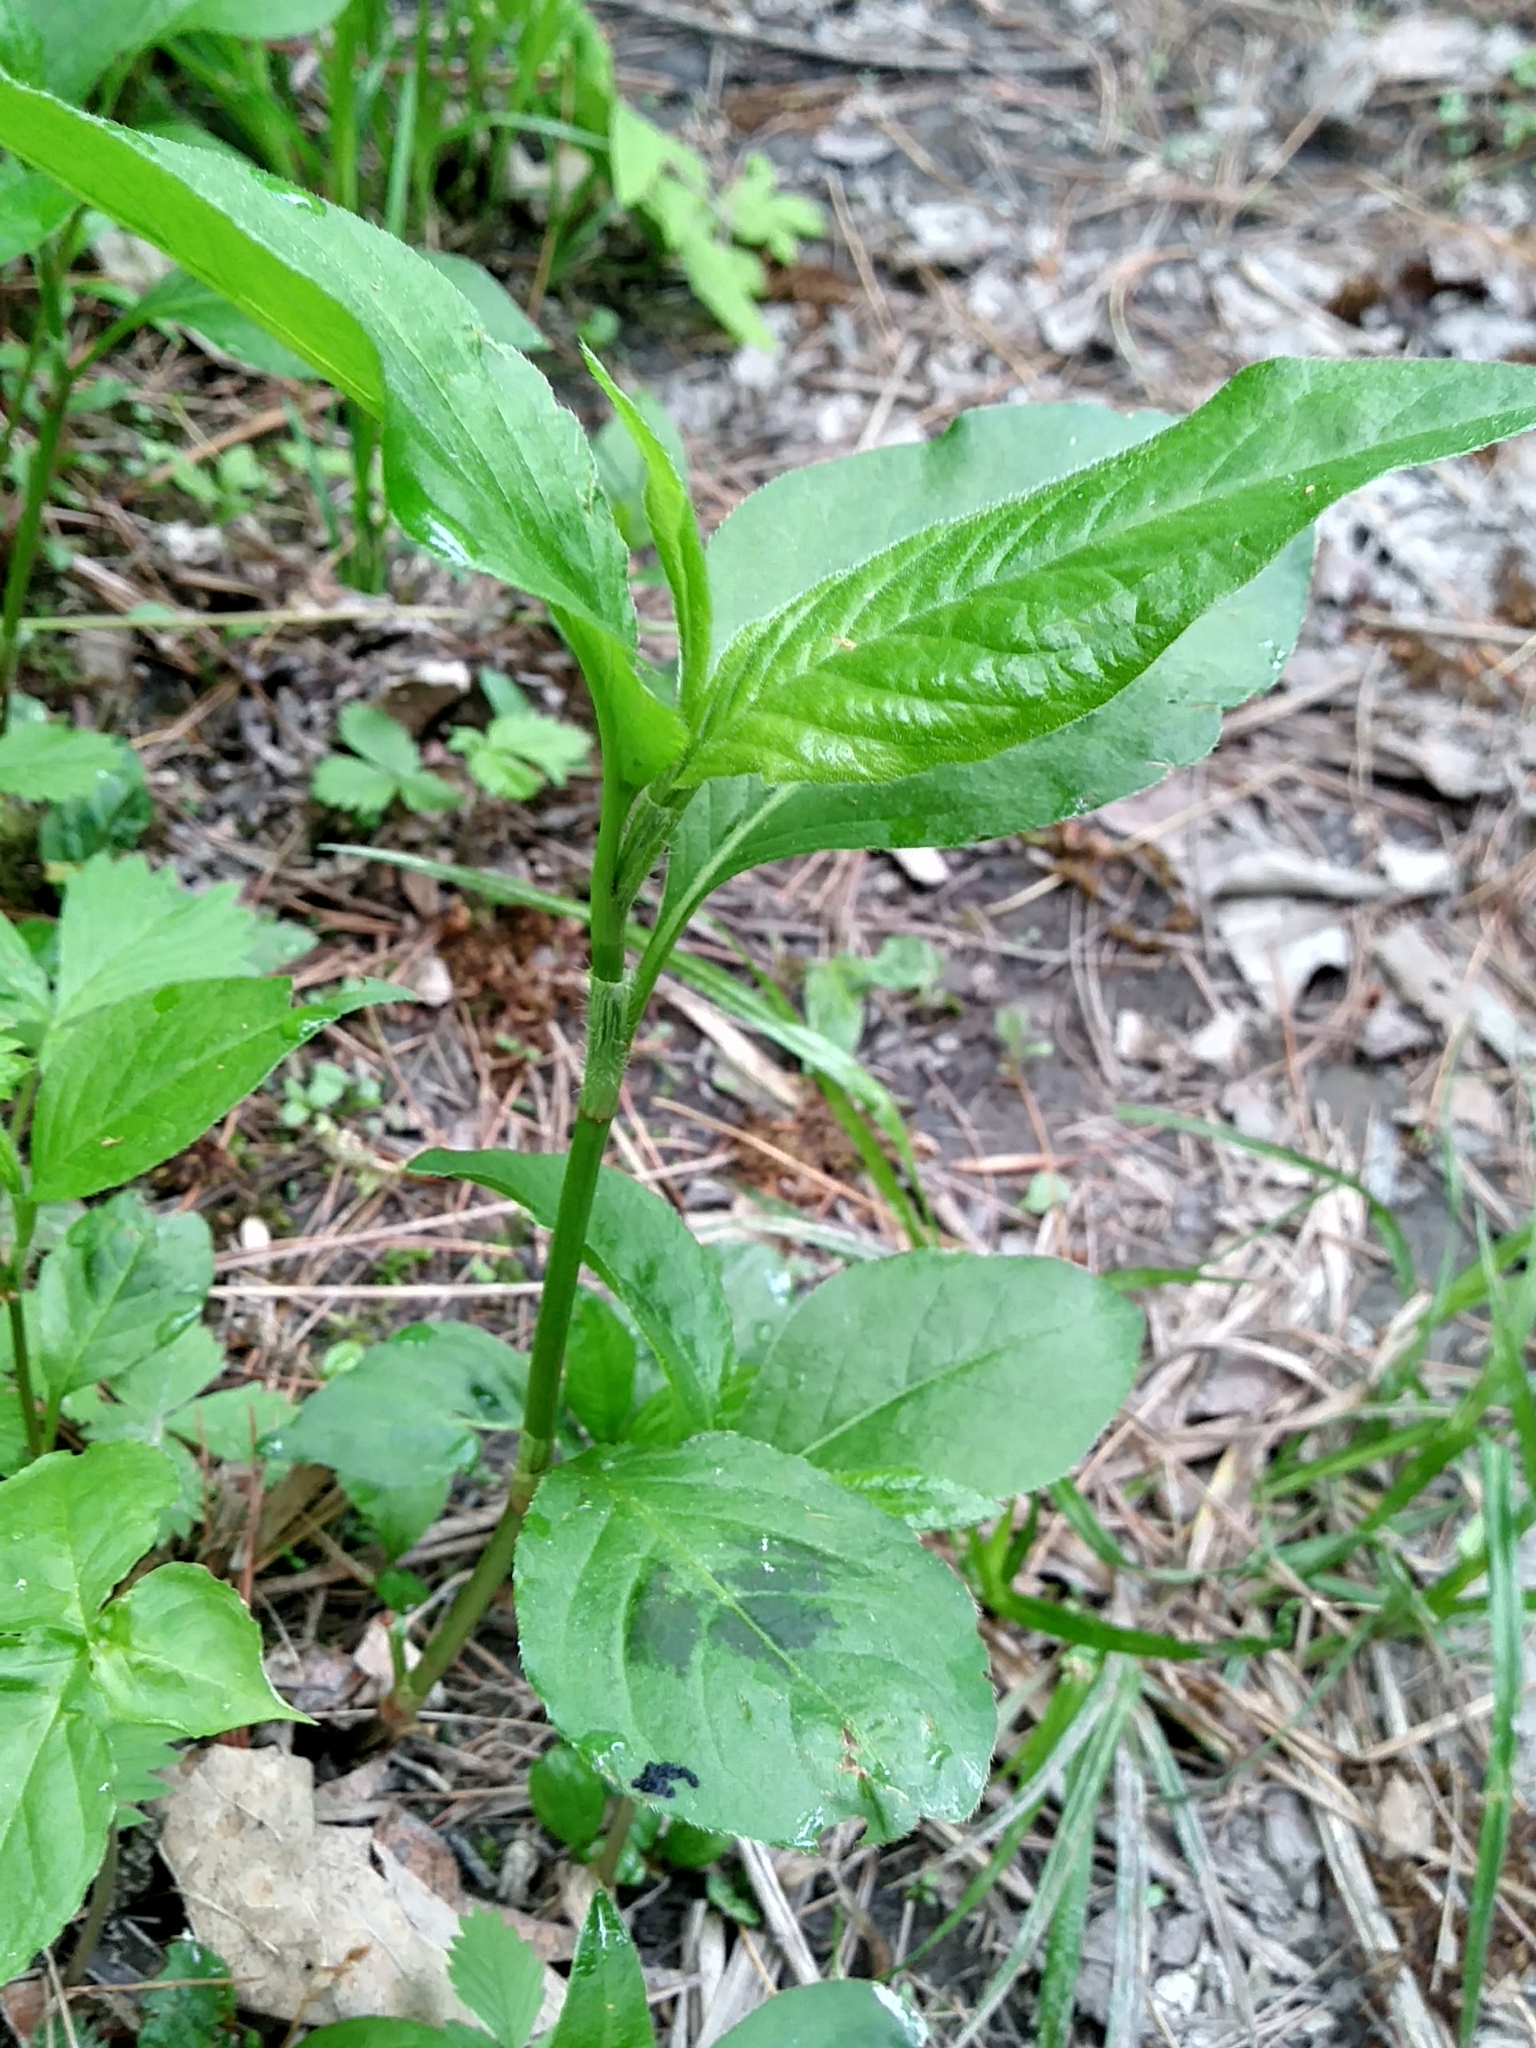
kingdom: Plantae
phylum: Tracheophyta
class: Magnoliopsida
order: Caryophyllales
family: Polygonaceae
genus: Persicaria
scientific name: Persicaria virginiana
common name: Jumpseed
